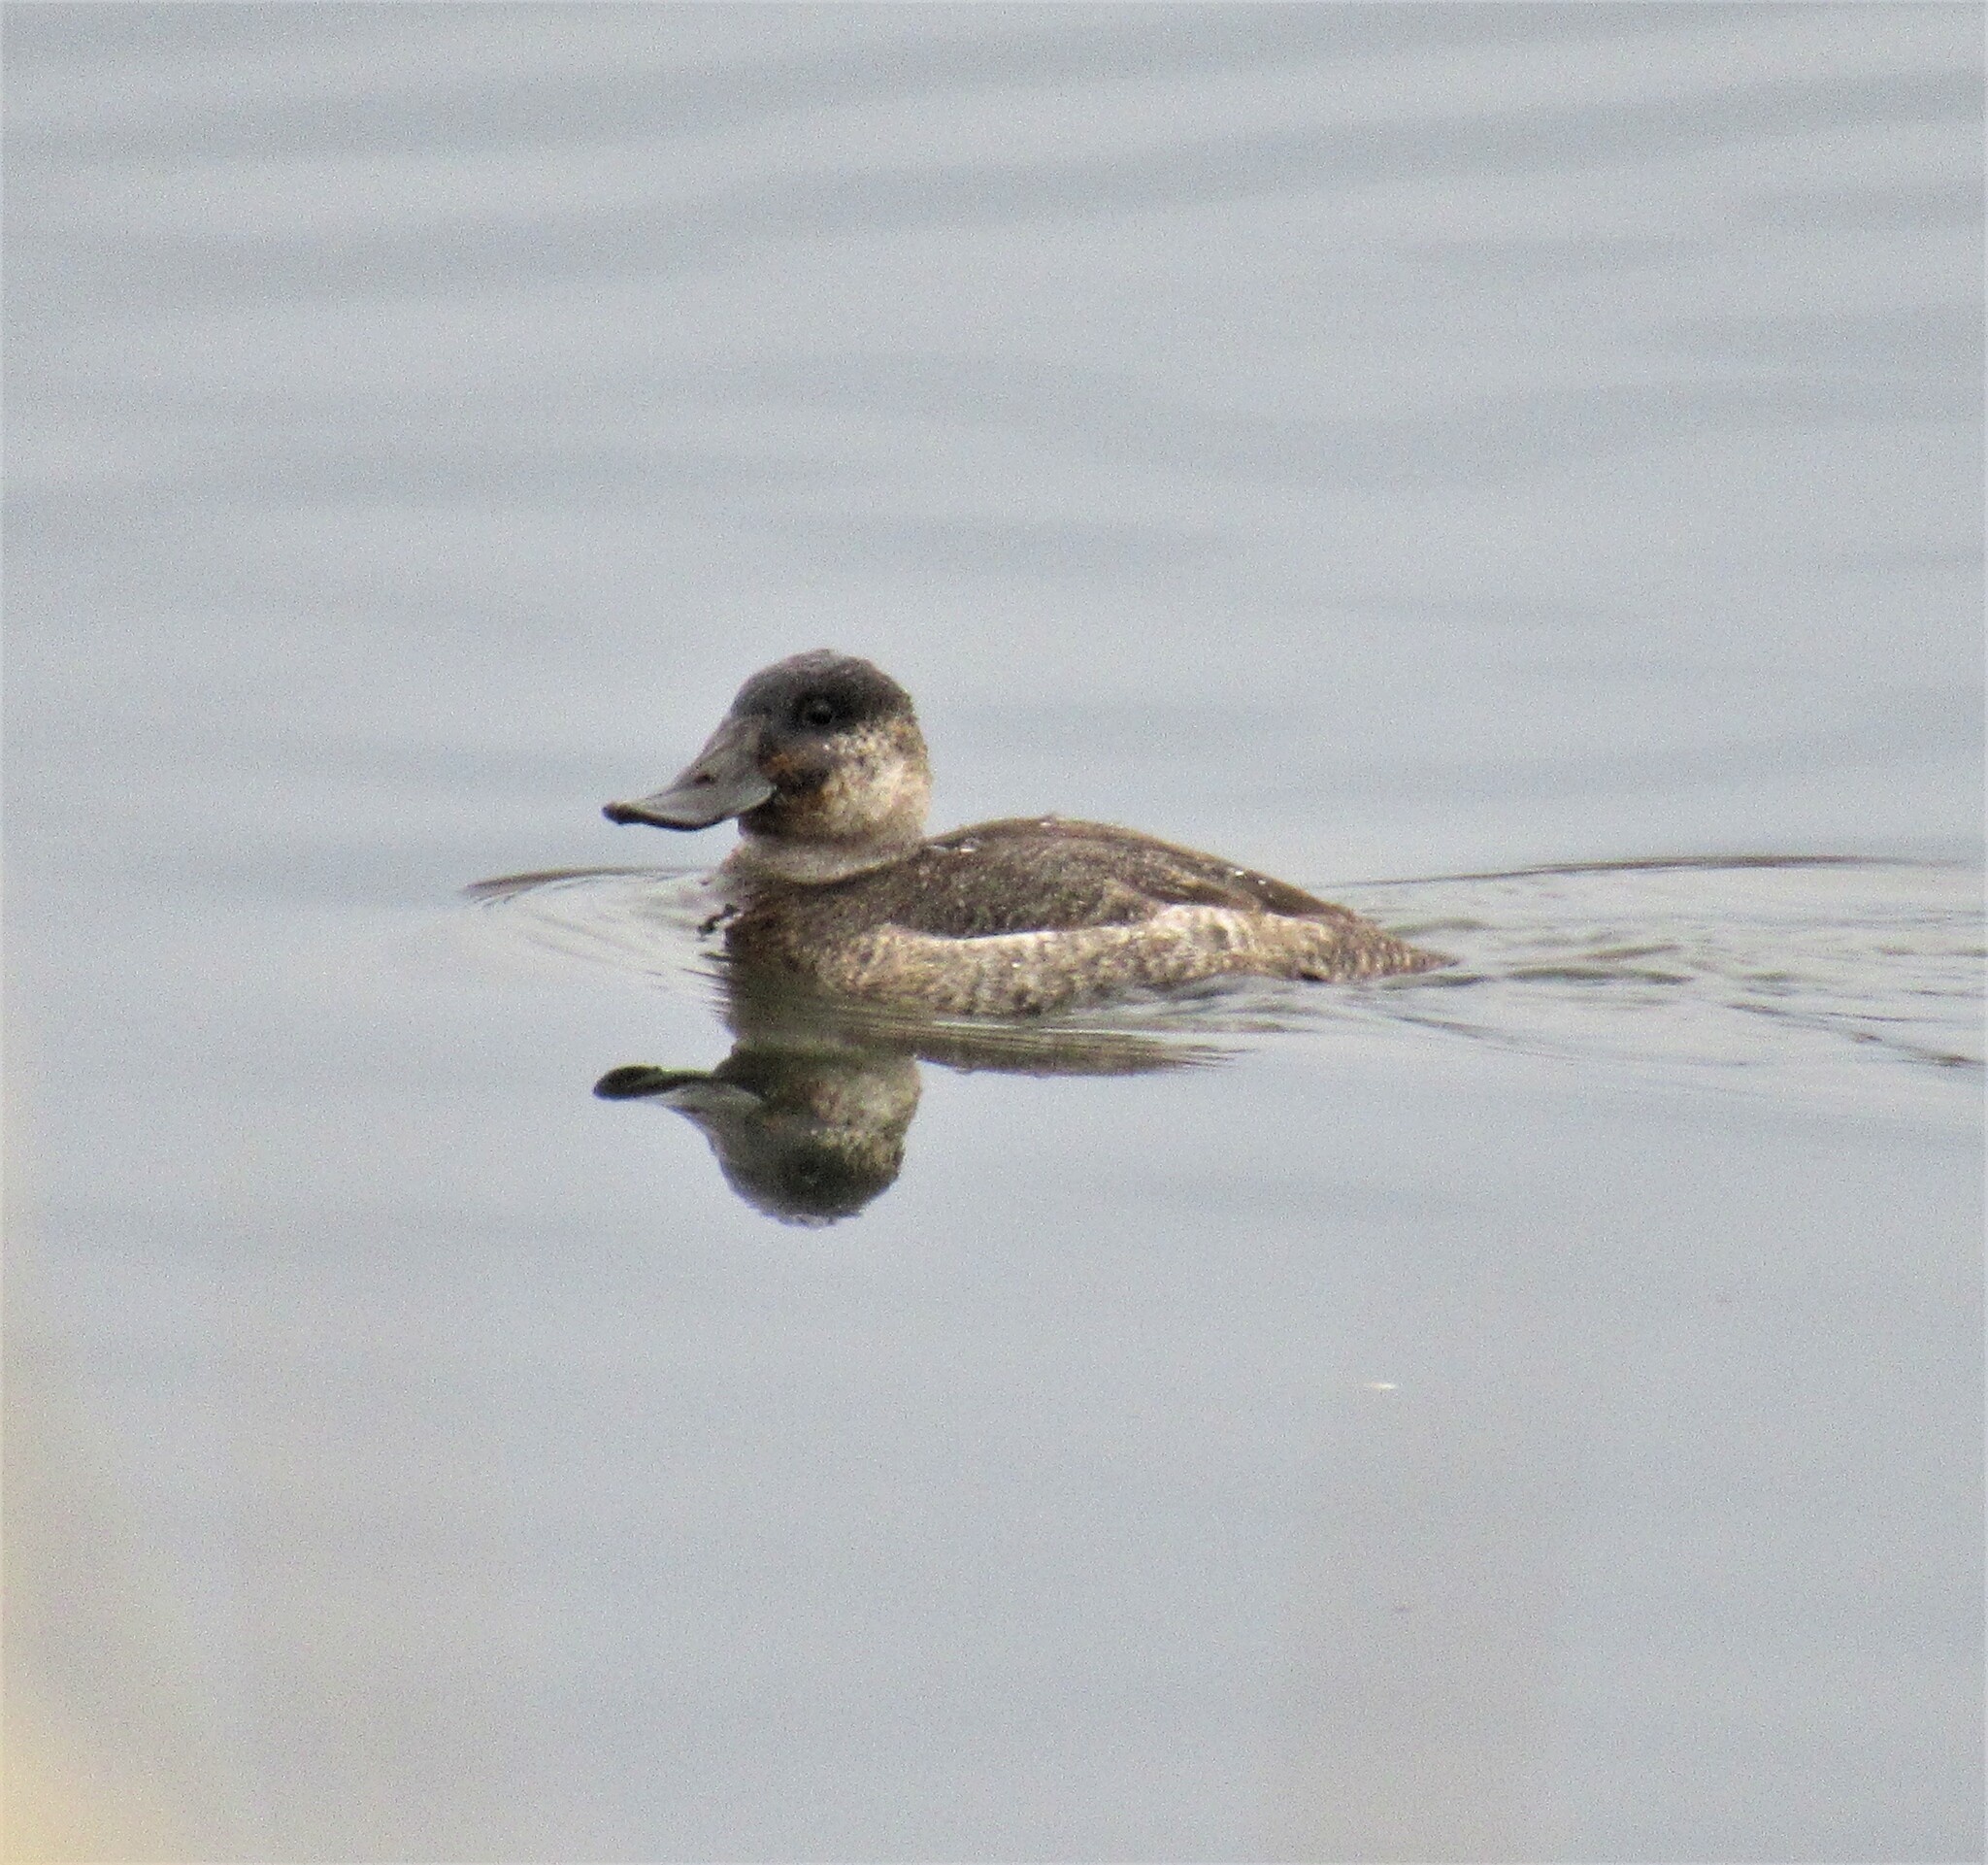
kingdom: Animalia
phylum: Chordata
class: Aves
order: Anseriformes
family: Anatidae
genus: Oxyura
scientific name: Oxyura jamaicensis
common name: Ruddy duck
